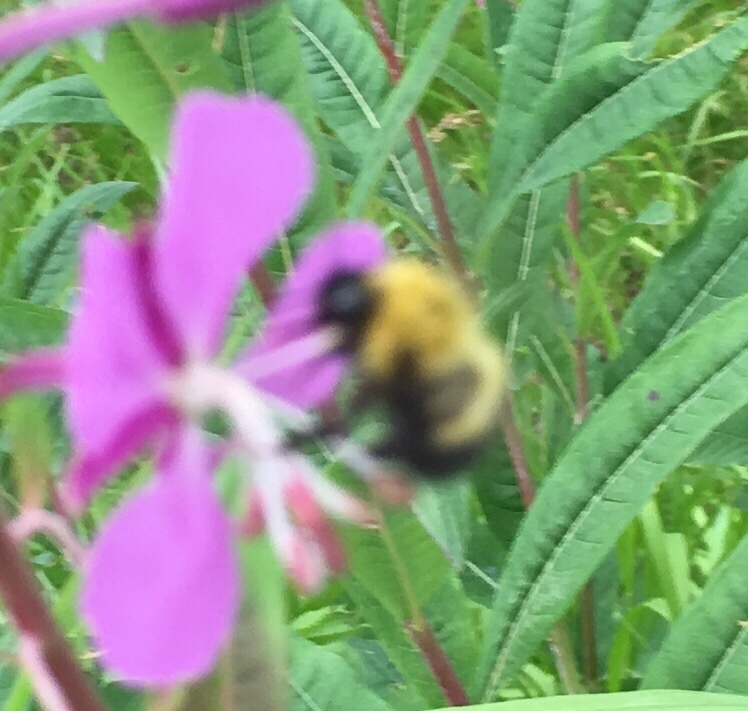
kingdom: Animalia
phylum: Arthropoda
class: Insecta
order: Hymenoptera
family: Apidae
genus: Bombus
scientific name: Bombus perplexus
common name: Confusing bumble bee
